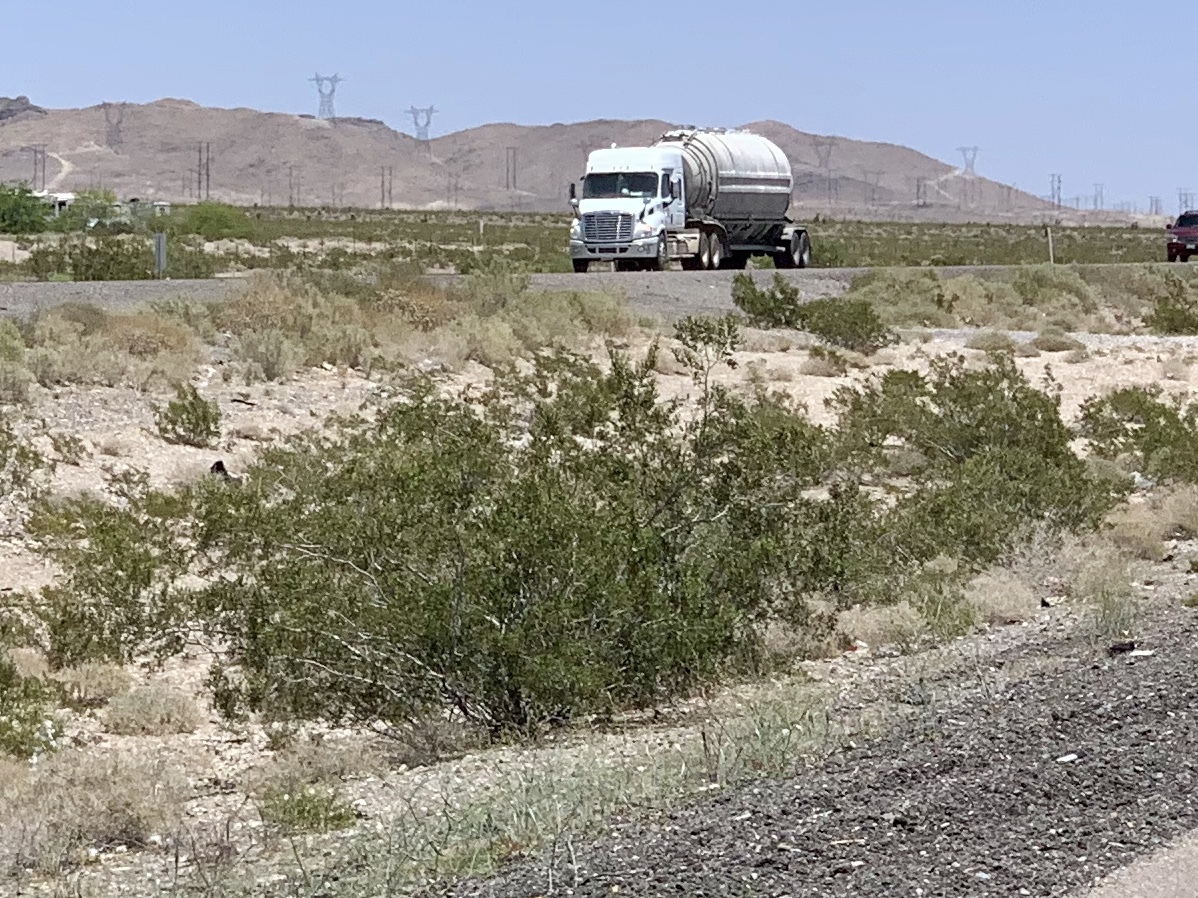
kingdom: Plantae
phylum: Tracheophyta
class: Magnoliopsida
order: Zygophyllales
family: Zygophyllaceae
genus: Larrea
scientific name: Larrea tridentata
